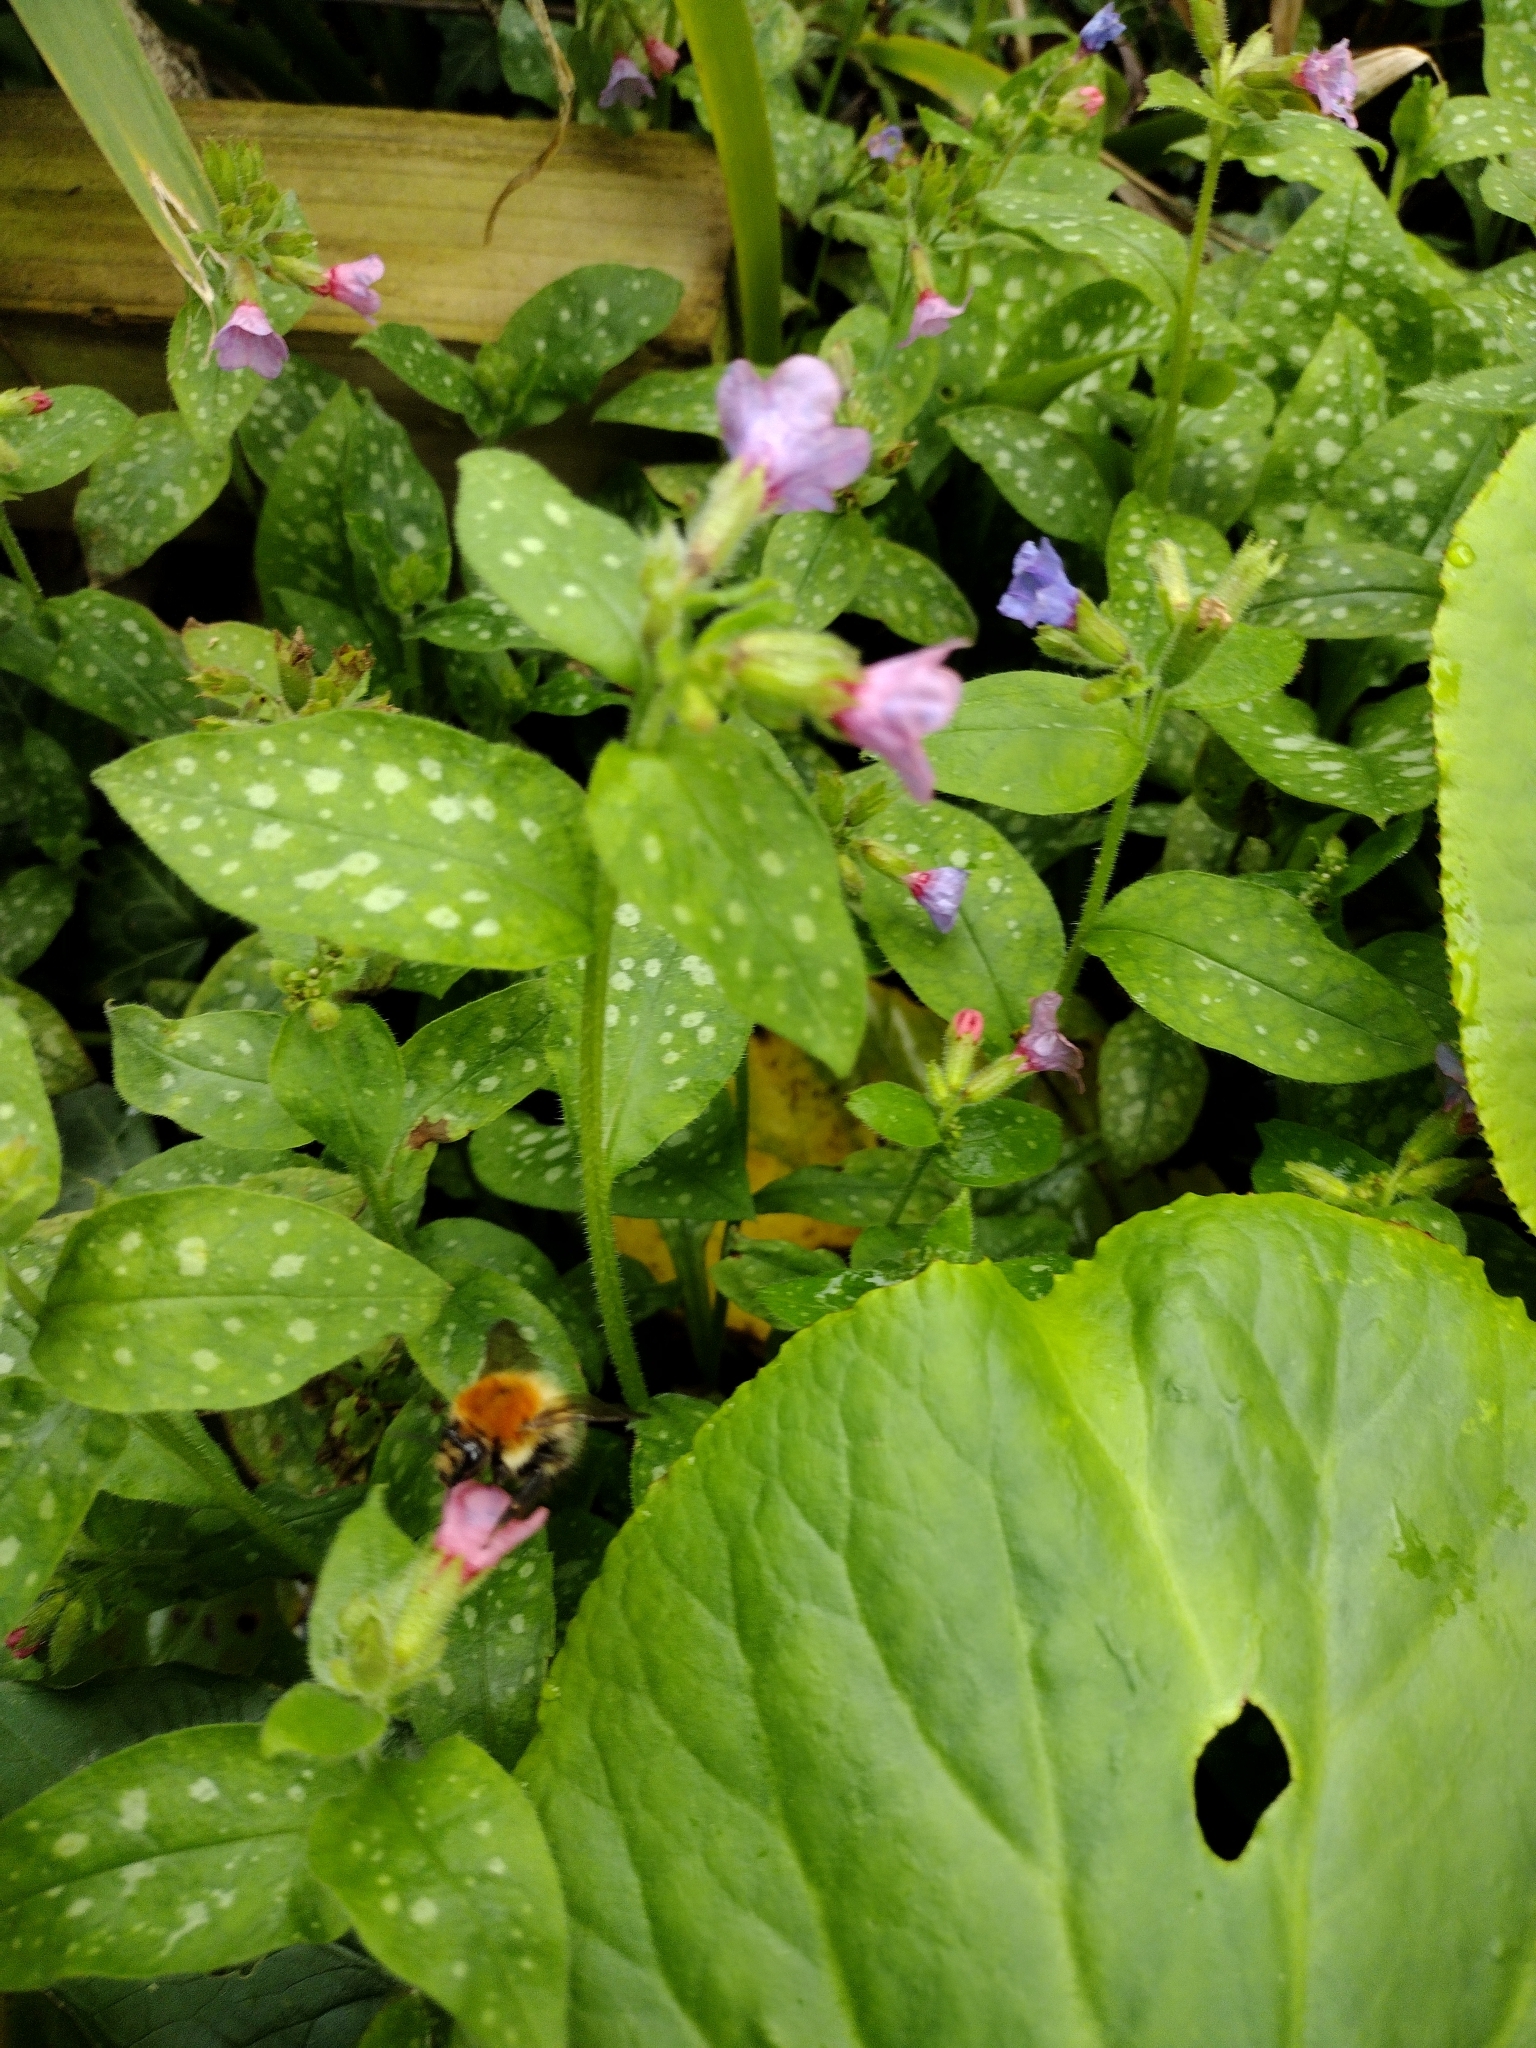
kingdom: Plantae
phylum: Tracheophyta
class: Magnoliopsida
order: Boraginales
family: Boraginaceae
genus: Pulmonaria
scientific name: Pulmonaria officinalis
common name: Lungwort
